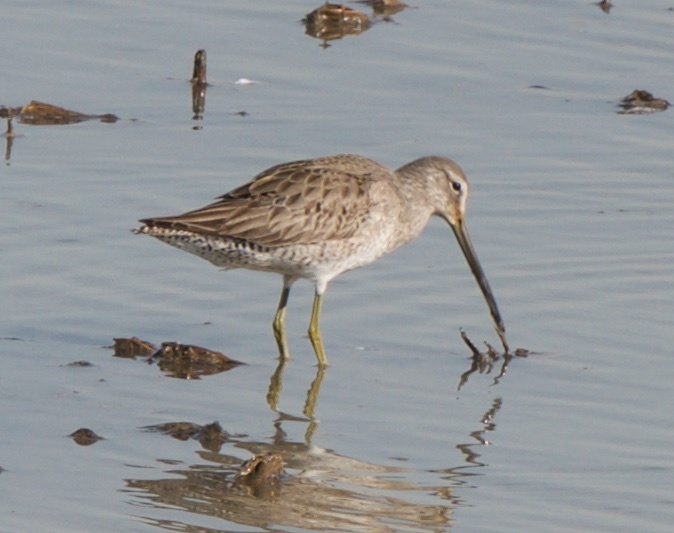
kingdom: Animalia
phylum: Chordata
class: Aves
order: Charadriiformes
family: Scolopacidae
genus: Limnodromus
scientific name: Limnodromus scolopaceus
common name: Long-billed dowitcher
